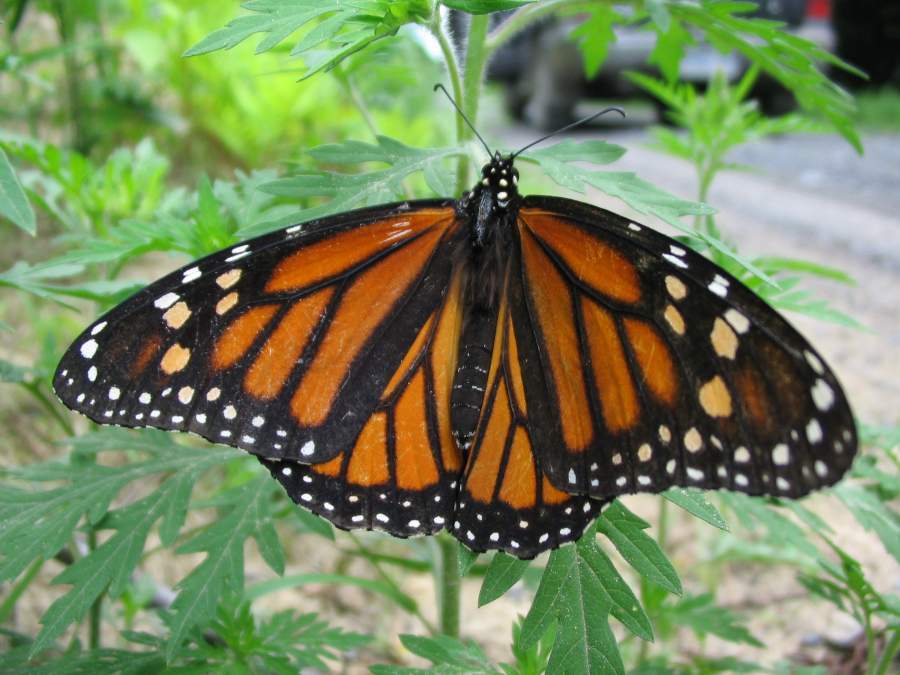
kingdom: Animalia
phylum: Arthropoda
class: Insecta
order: Lepidoptera
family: Nymphalidae
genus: Danaus
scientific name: Danaus plexippus
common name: Monarch
